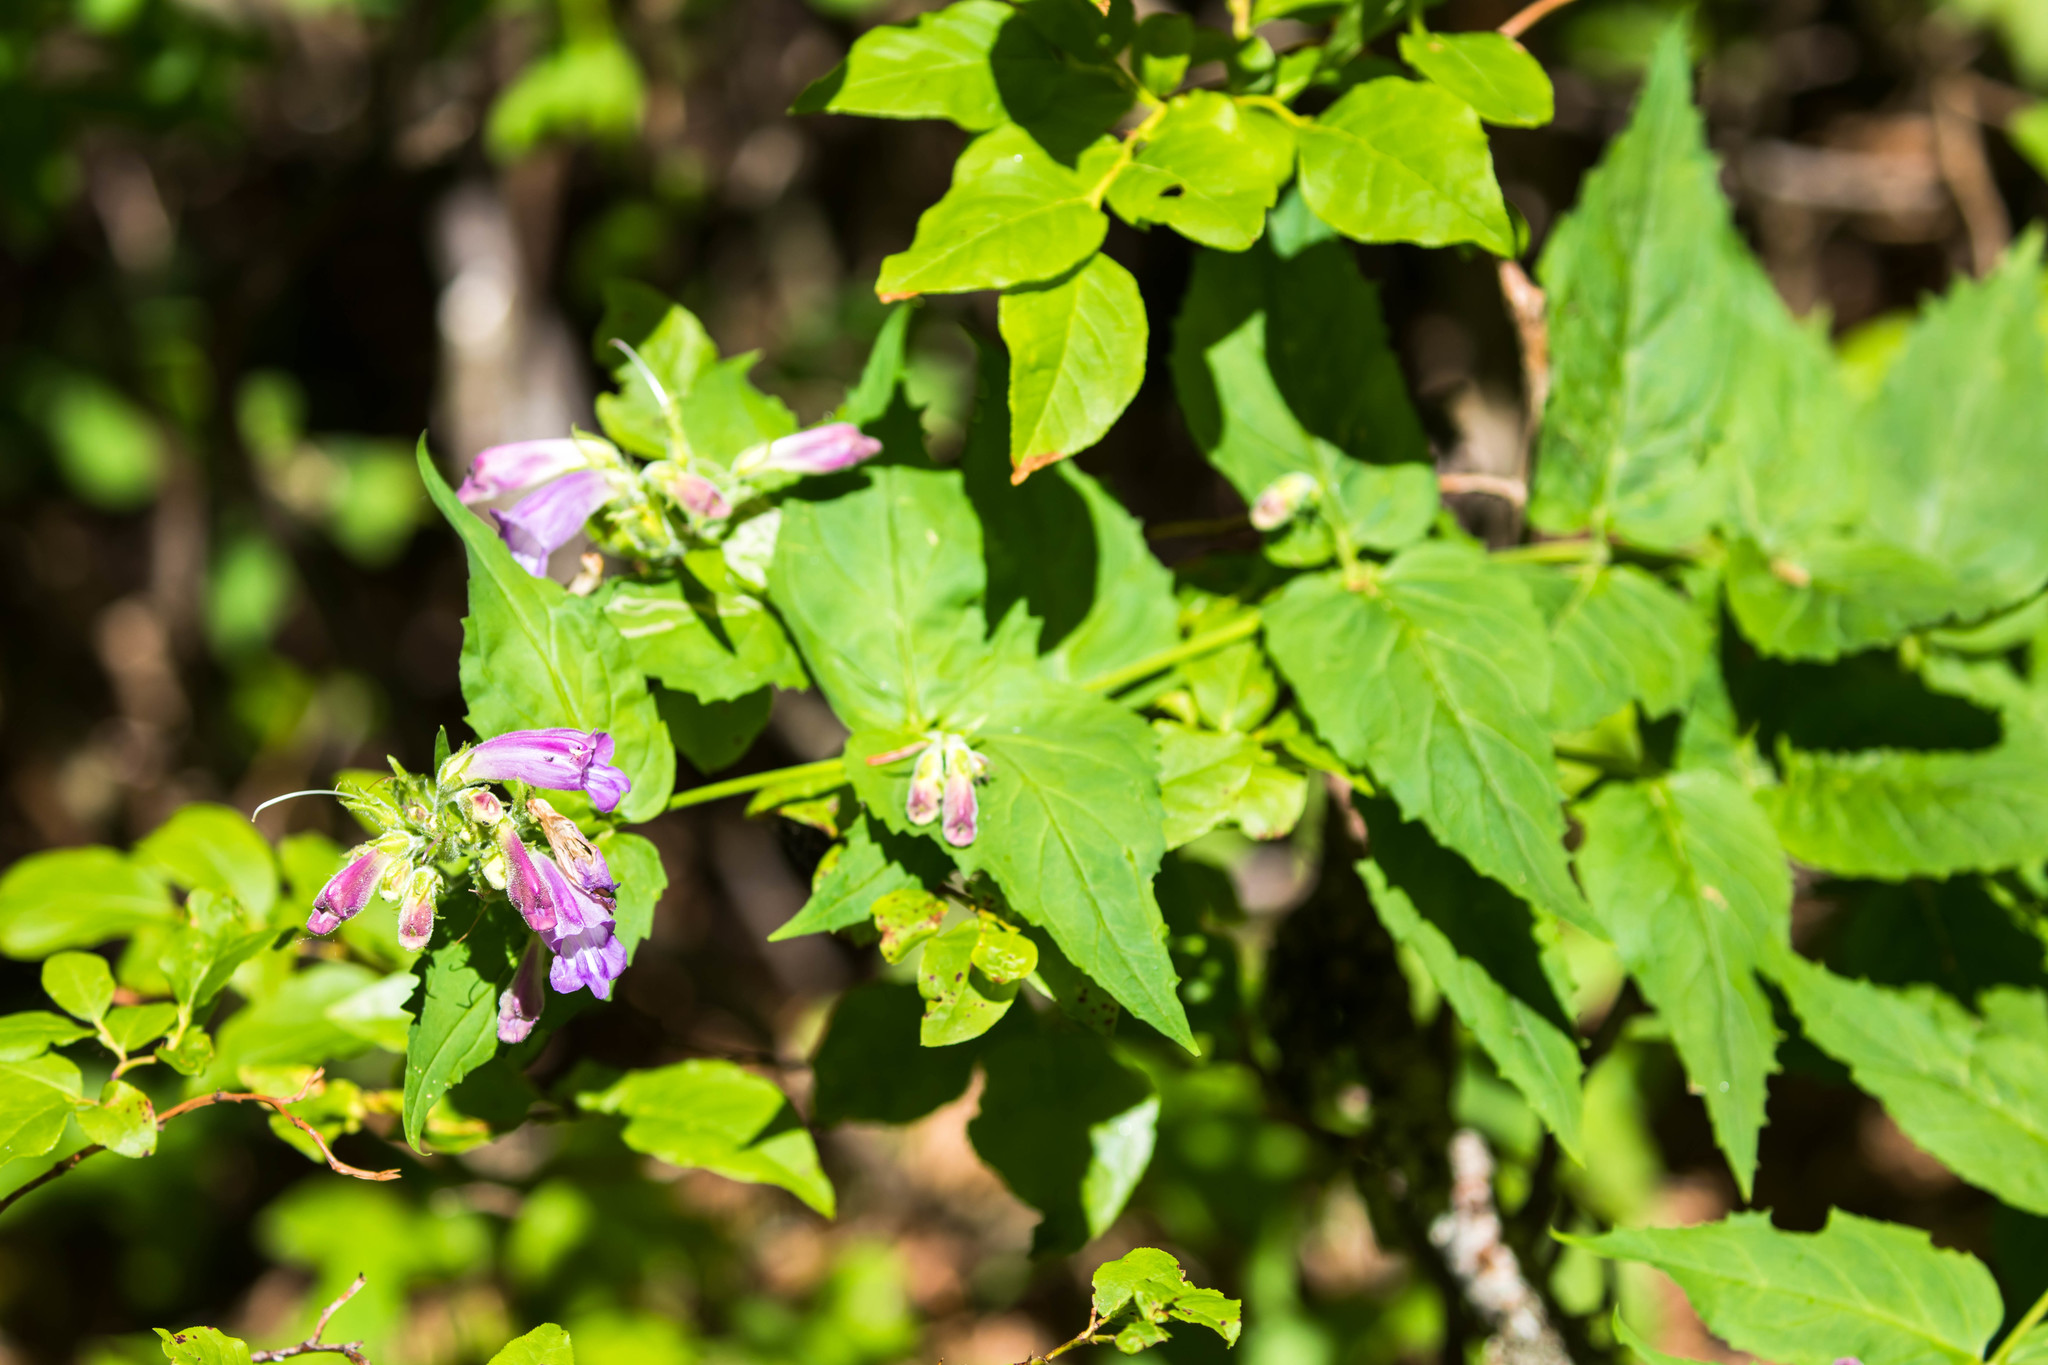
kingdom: Plantae
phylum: Tracheophyta
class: Magnoliopsida
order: Lamiales
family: Plantaginaceae
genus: Nothochelone
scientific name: Nothochelone nemorosa
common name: Woodland beardtongue
